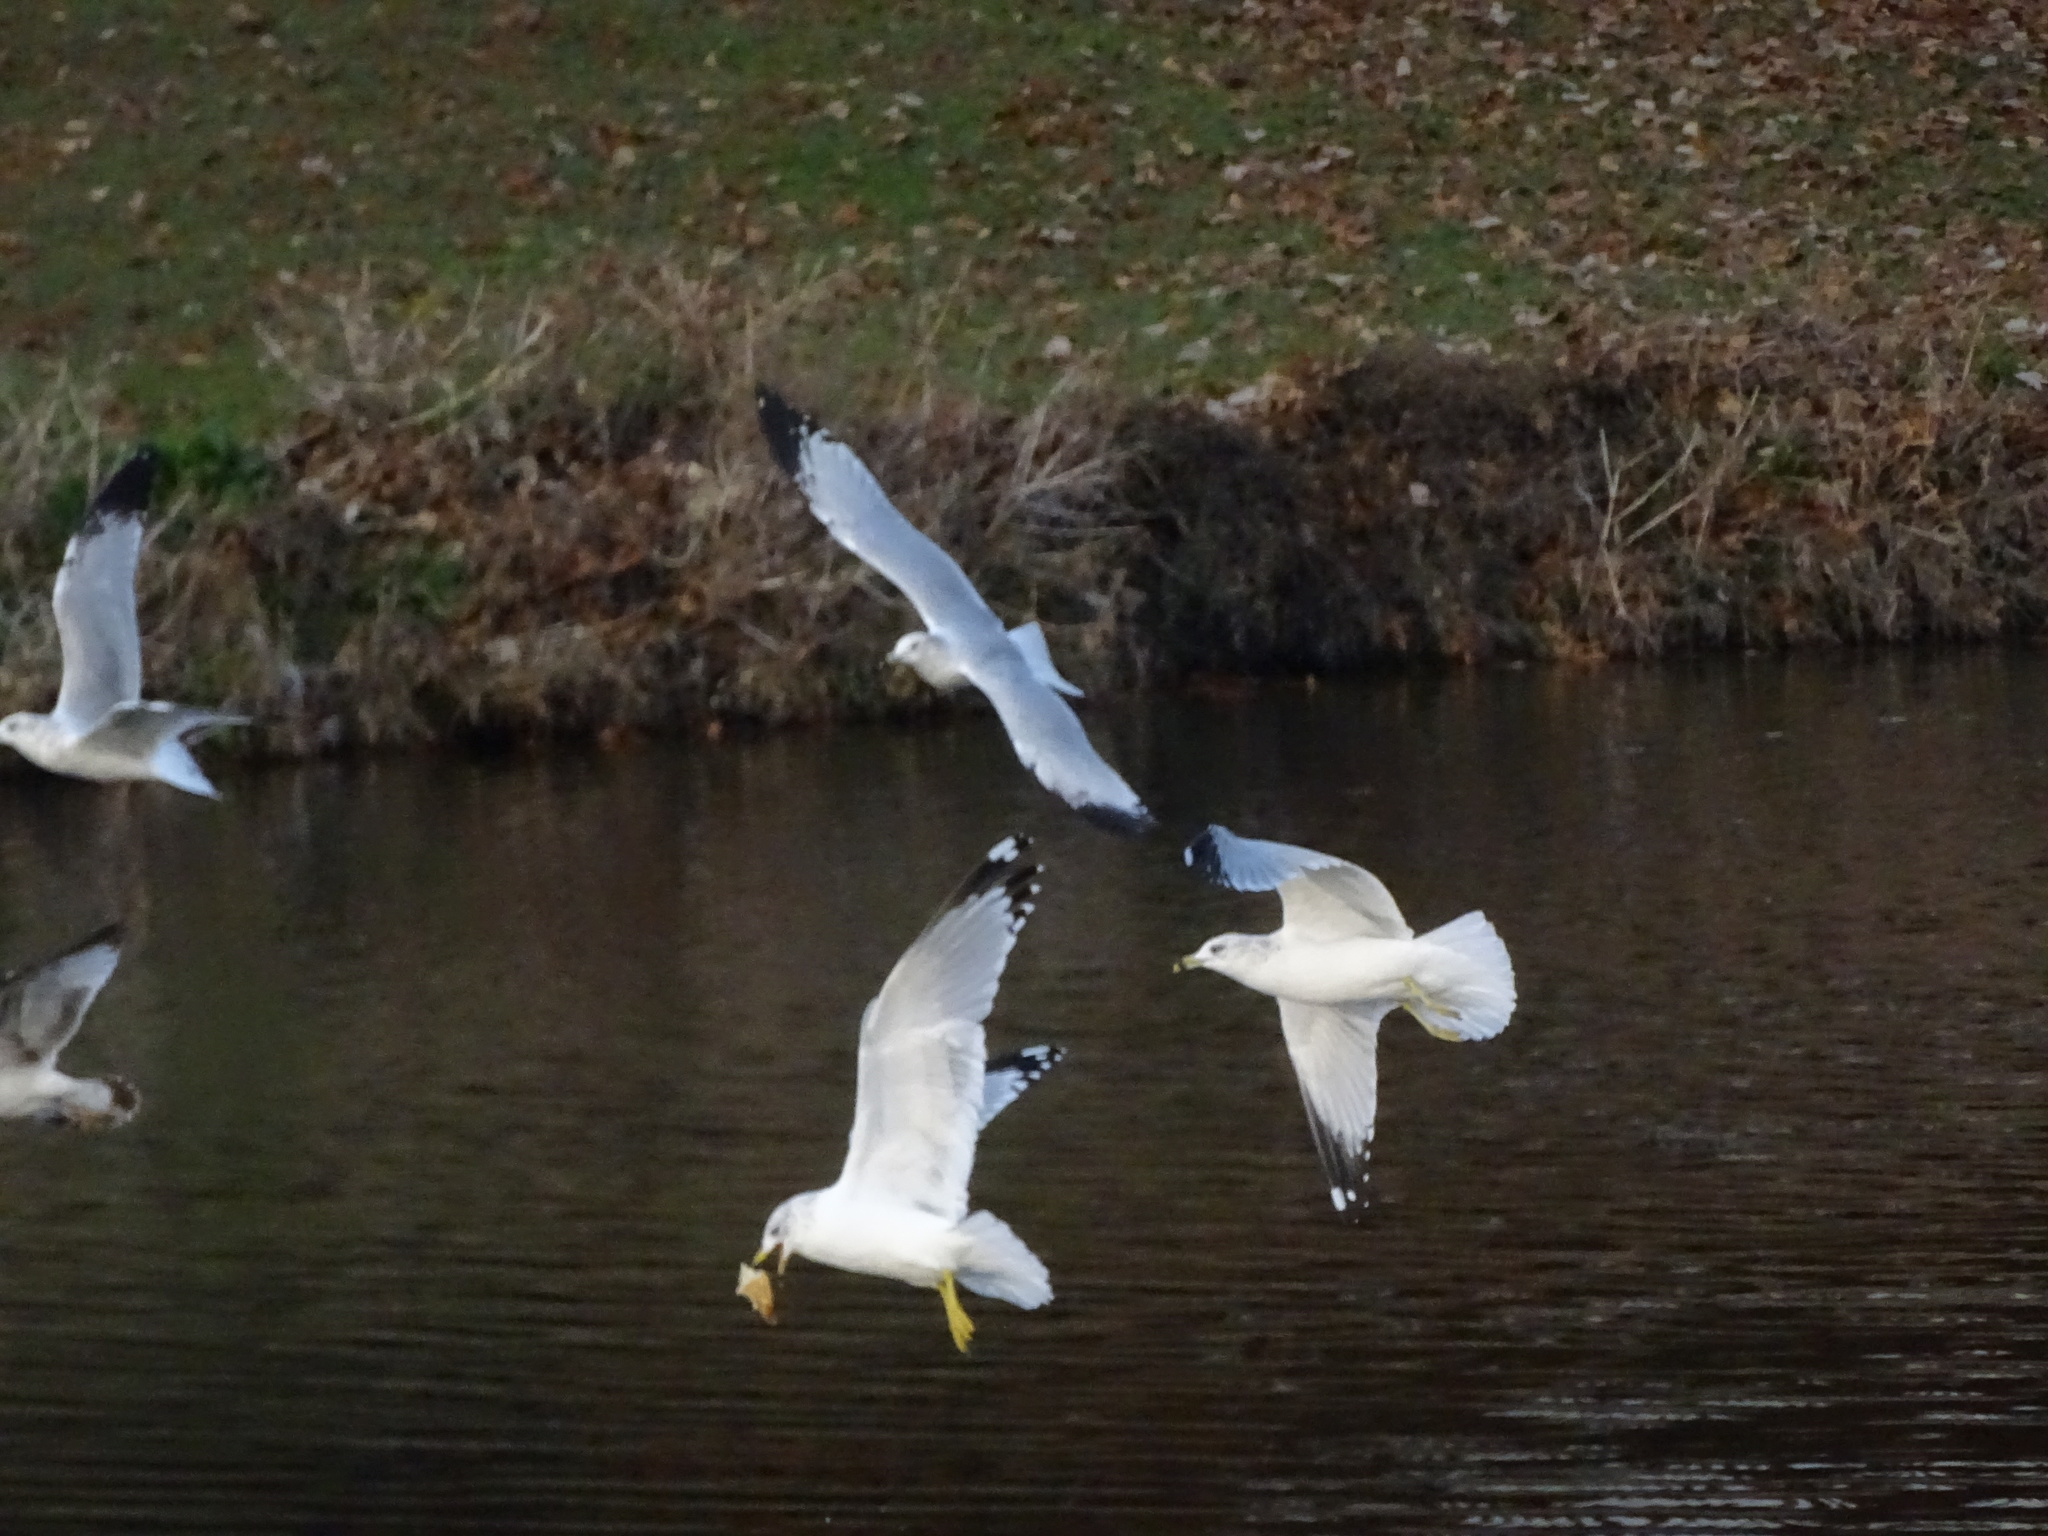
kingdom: Animalia
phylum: Chordata
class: Aves
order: Charadriiformes
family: Laridae
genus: Larus
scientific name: Larus delawarensis
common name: Ring-billed gull
